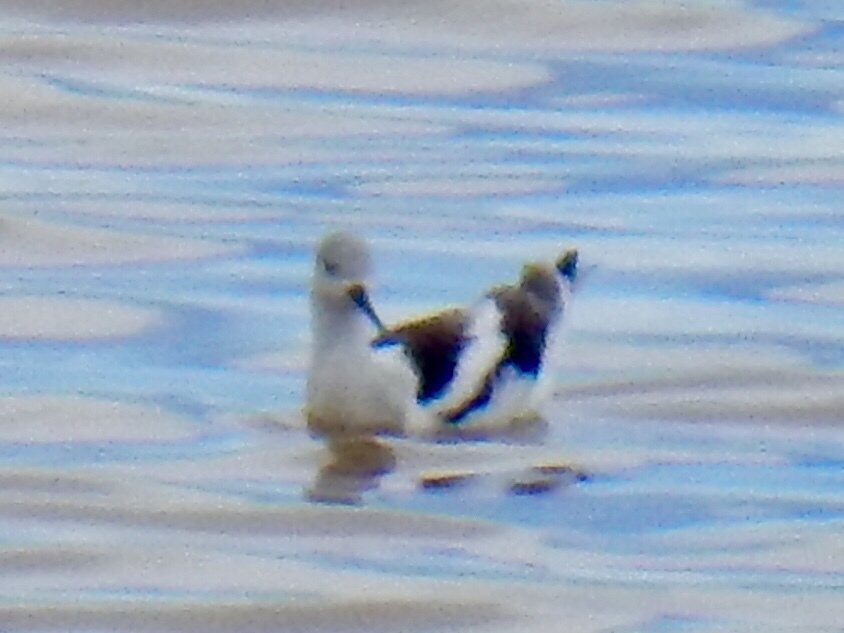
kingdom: Animalia
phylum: Chordata
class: Aves
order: Charadriiformes
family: Recurvirostridae
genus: Recurvirostra
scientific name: Recurvirostra americana
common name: American avocet
